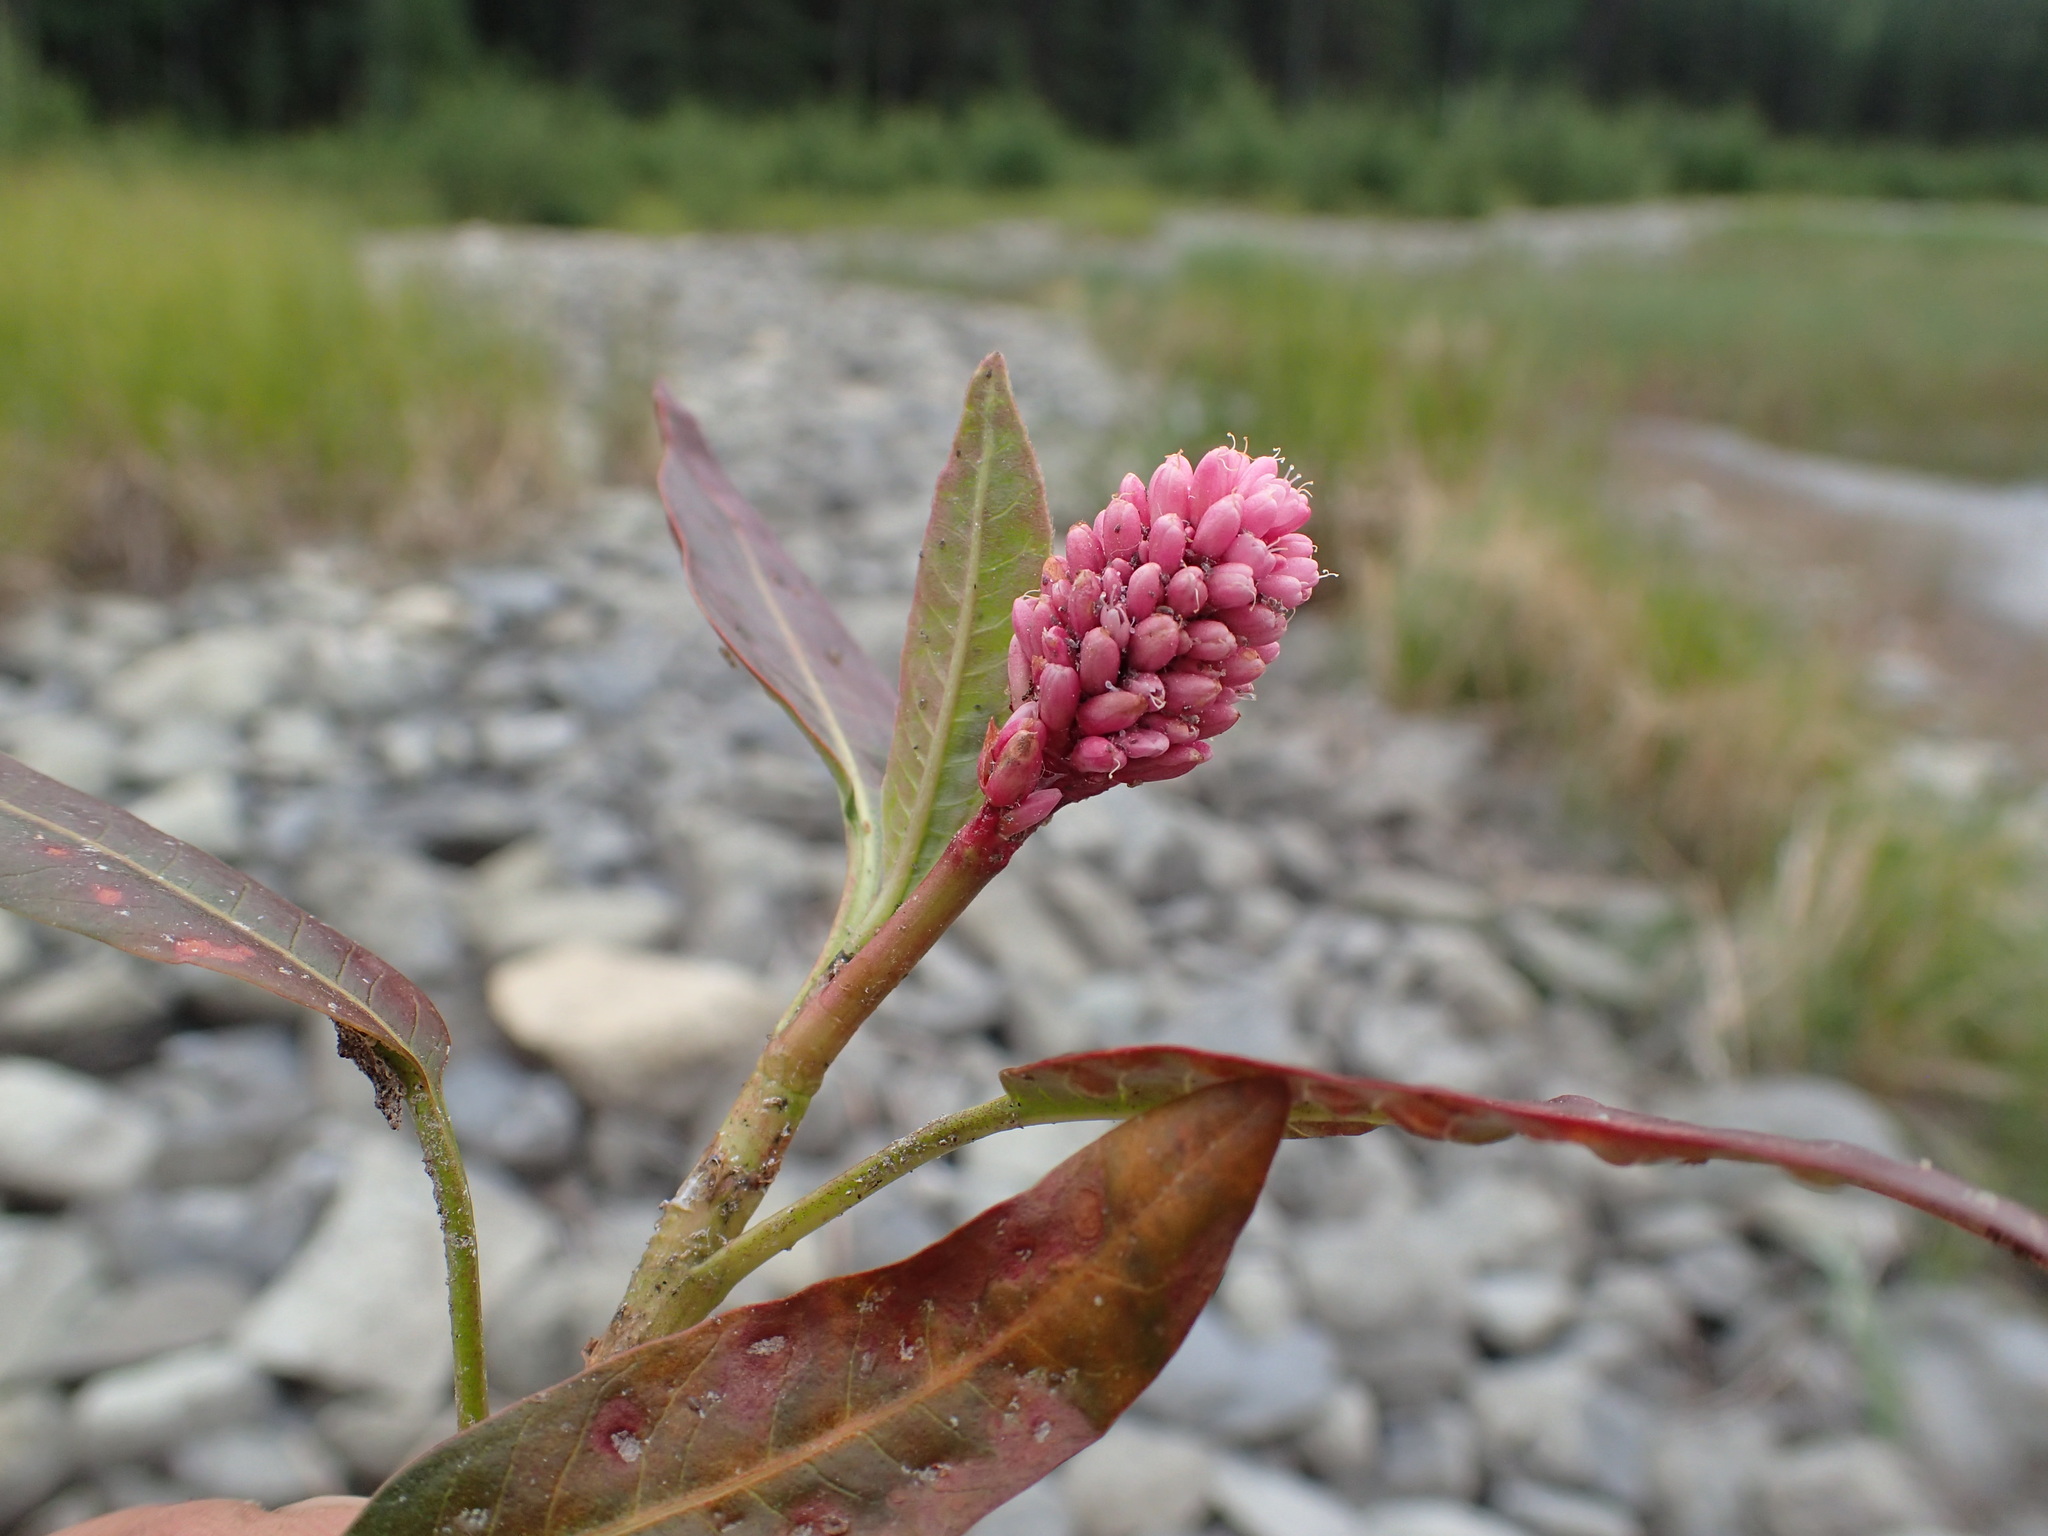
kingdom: Plantae
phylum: Tracheophyta
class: Magnoliopsida
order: Caryophyllales
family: Polygonaceae
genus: Persicaria
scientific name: Persicaria amphibia
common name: Amphibious bistort
